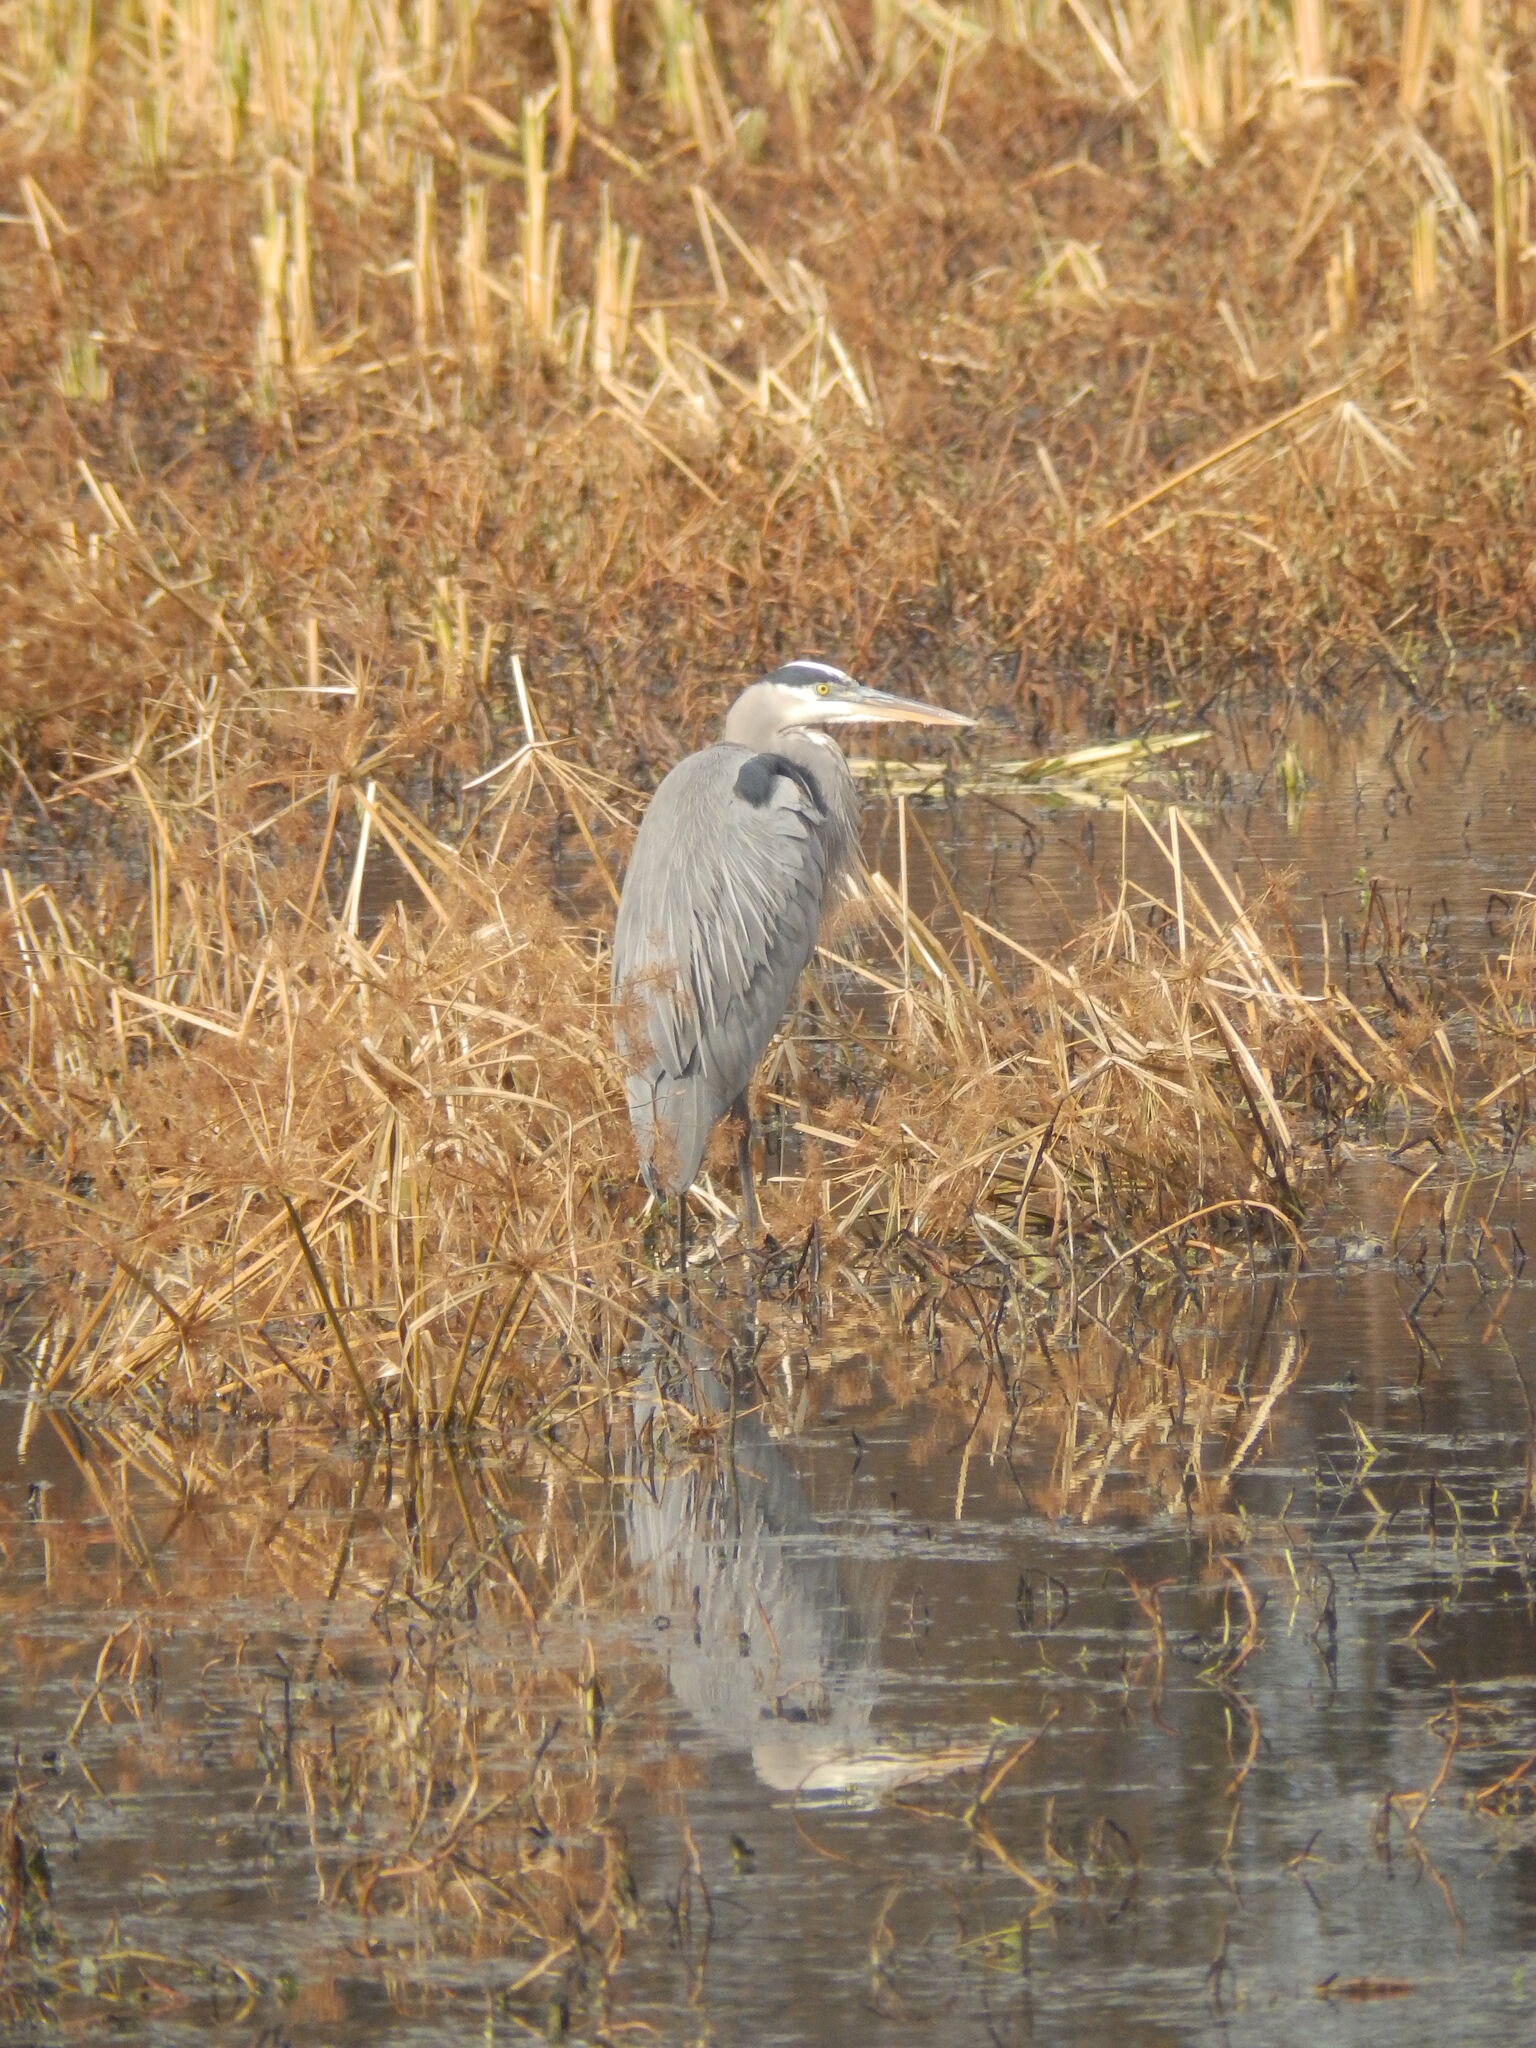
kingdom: Animalia
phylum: Chordata
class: Aves
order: Pelecaniformes
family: Ardeidae
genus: Ardea
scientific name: Ardea herodias
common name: Great blue heron
